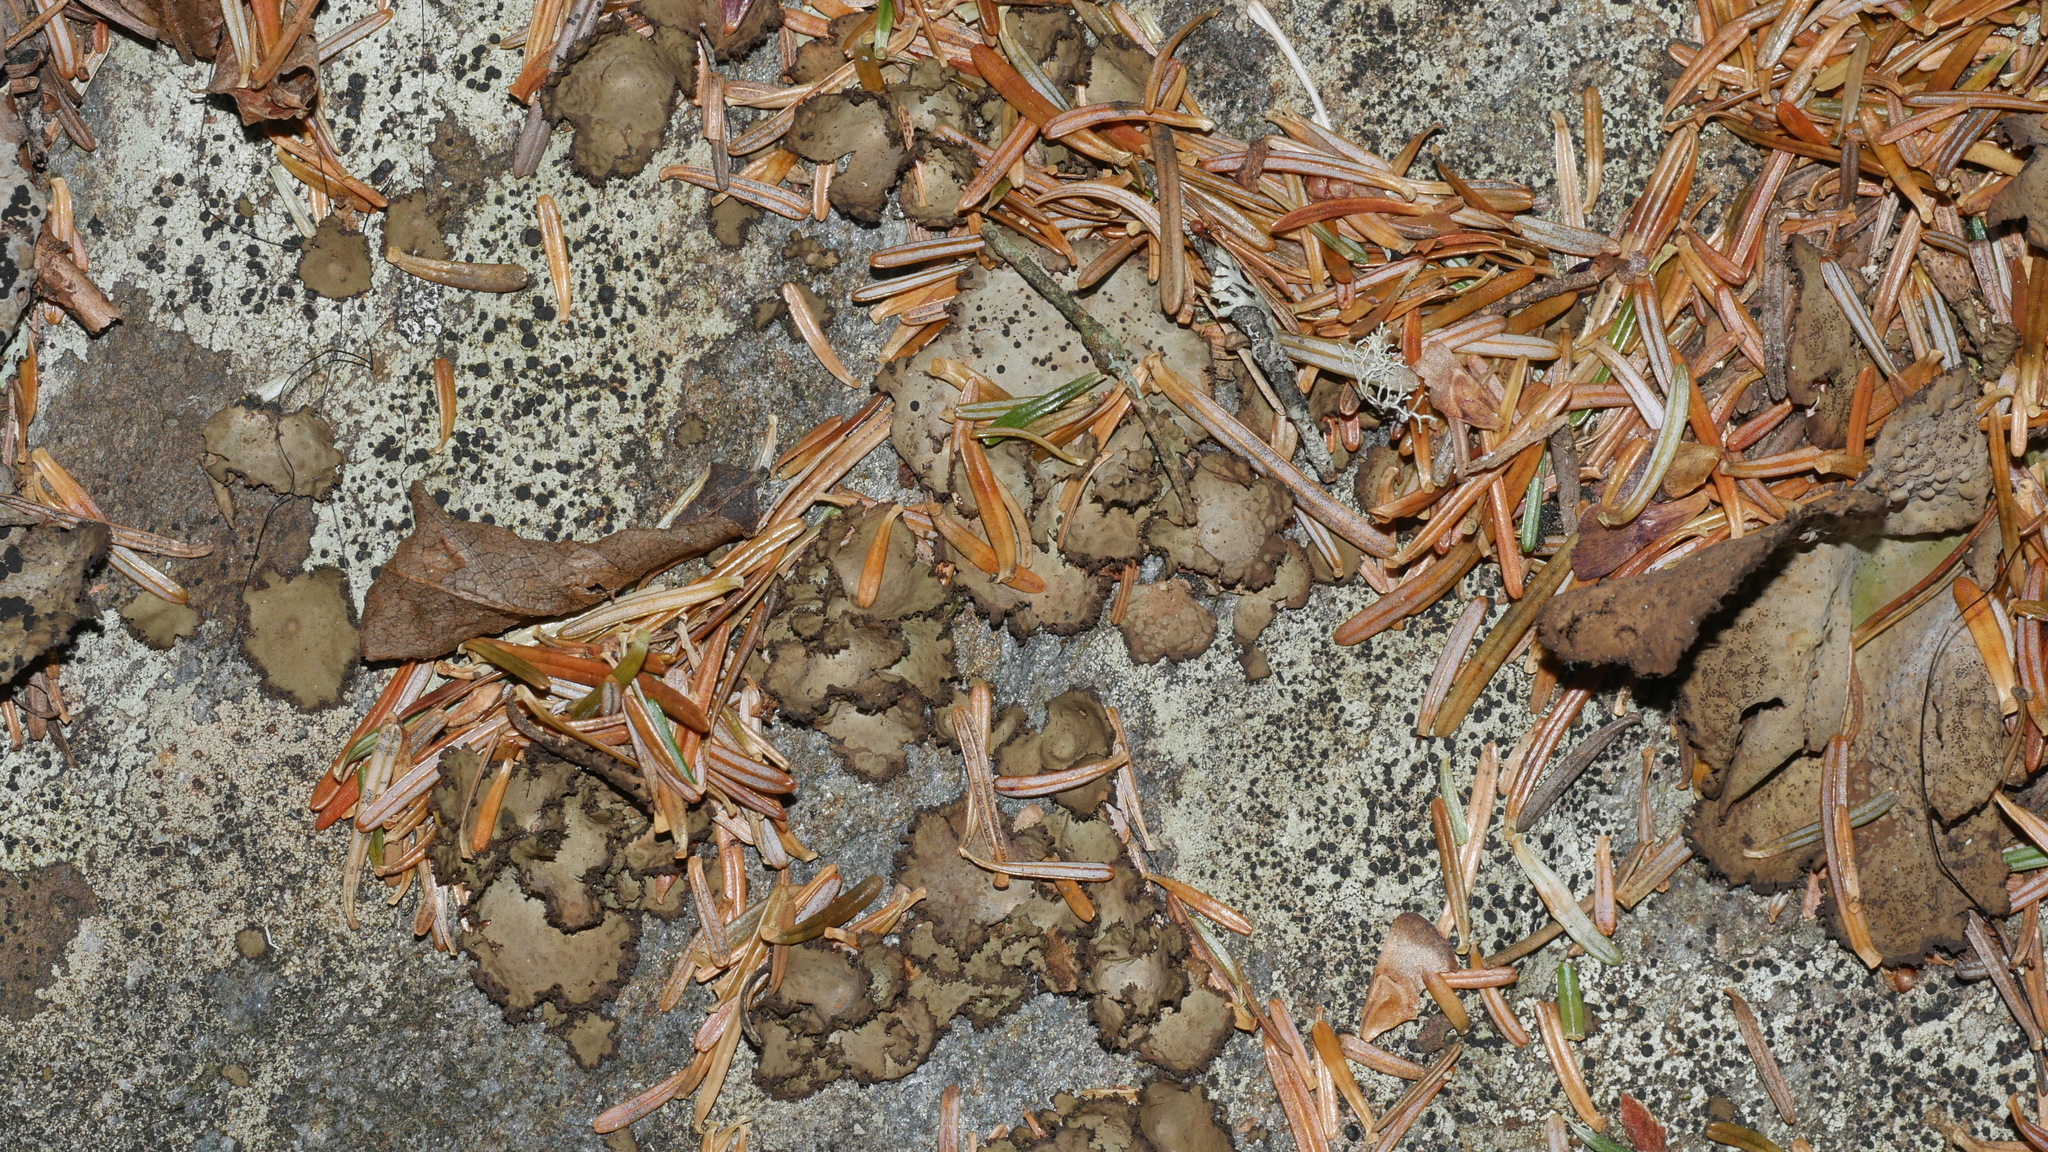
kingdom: Fungi
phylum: Ascomycota
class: Lecanoromycetes
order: Umbilicariales
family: Umbilicariaceae
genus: Lasallia
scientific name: Lasallia pensylvanica
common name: Blackened toadskin lichen
